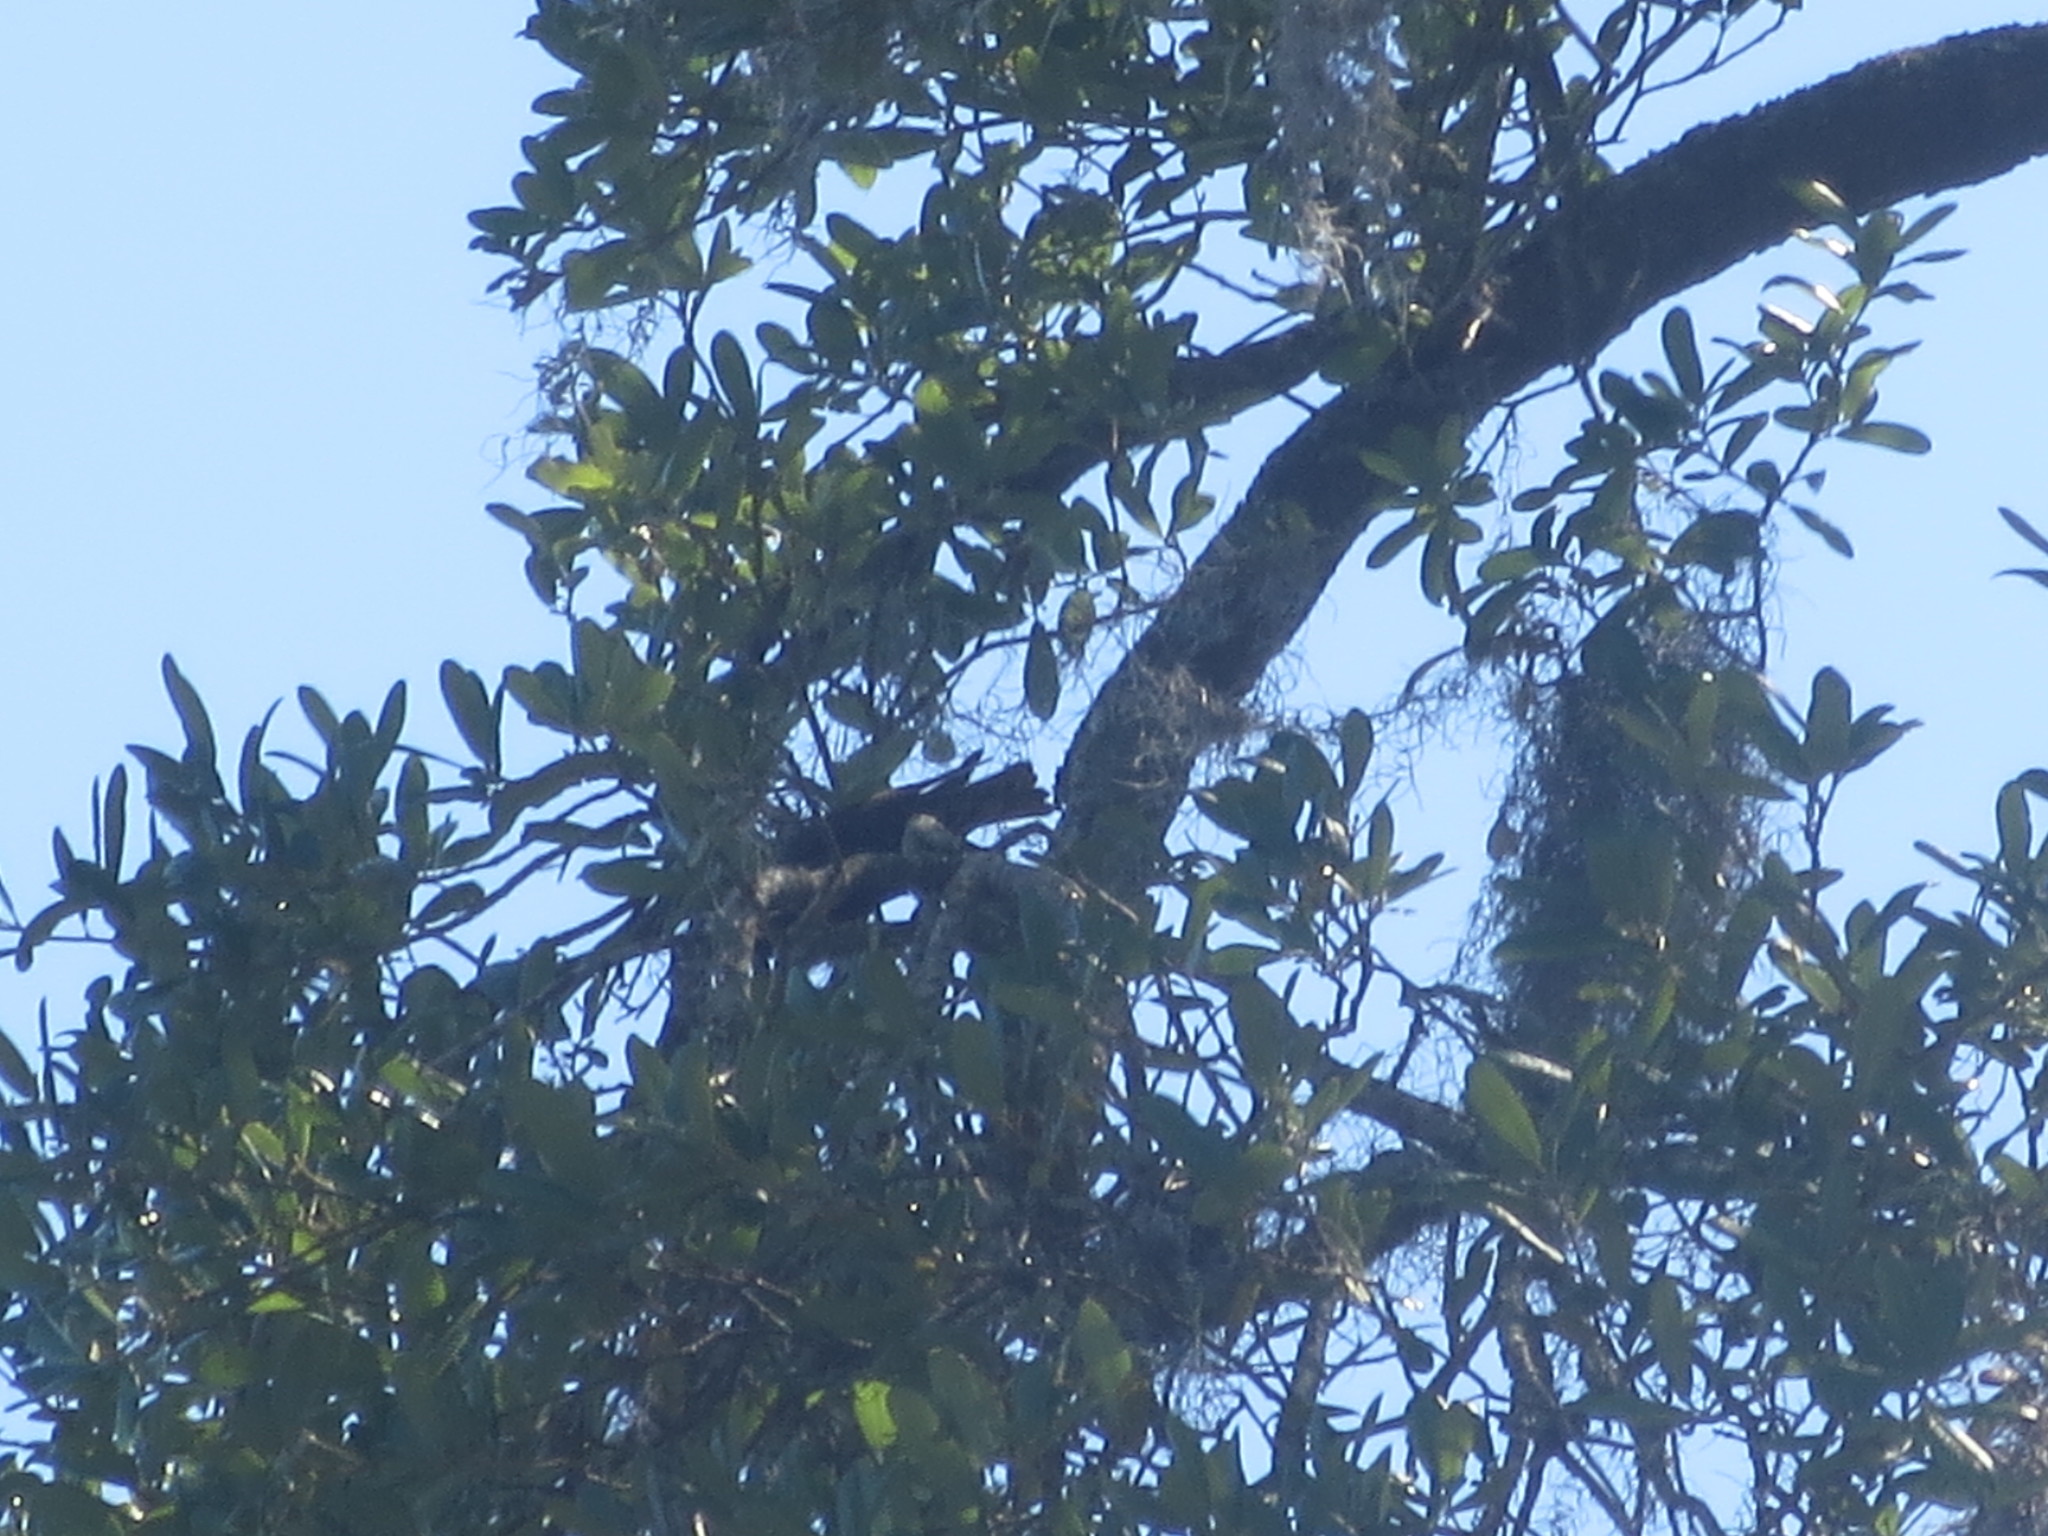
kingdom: Plantae
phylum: Tracheophyta
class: Liliopsida
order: Poales
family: Bromeliaceae
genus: Tillandsia
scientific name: Tillandsia usneoides
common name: Spanish moss
